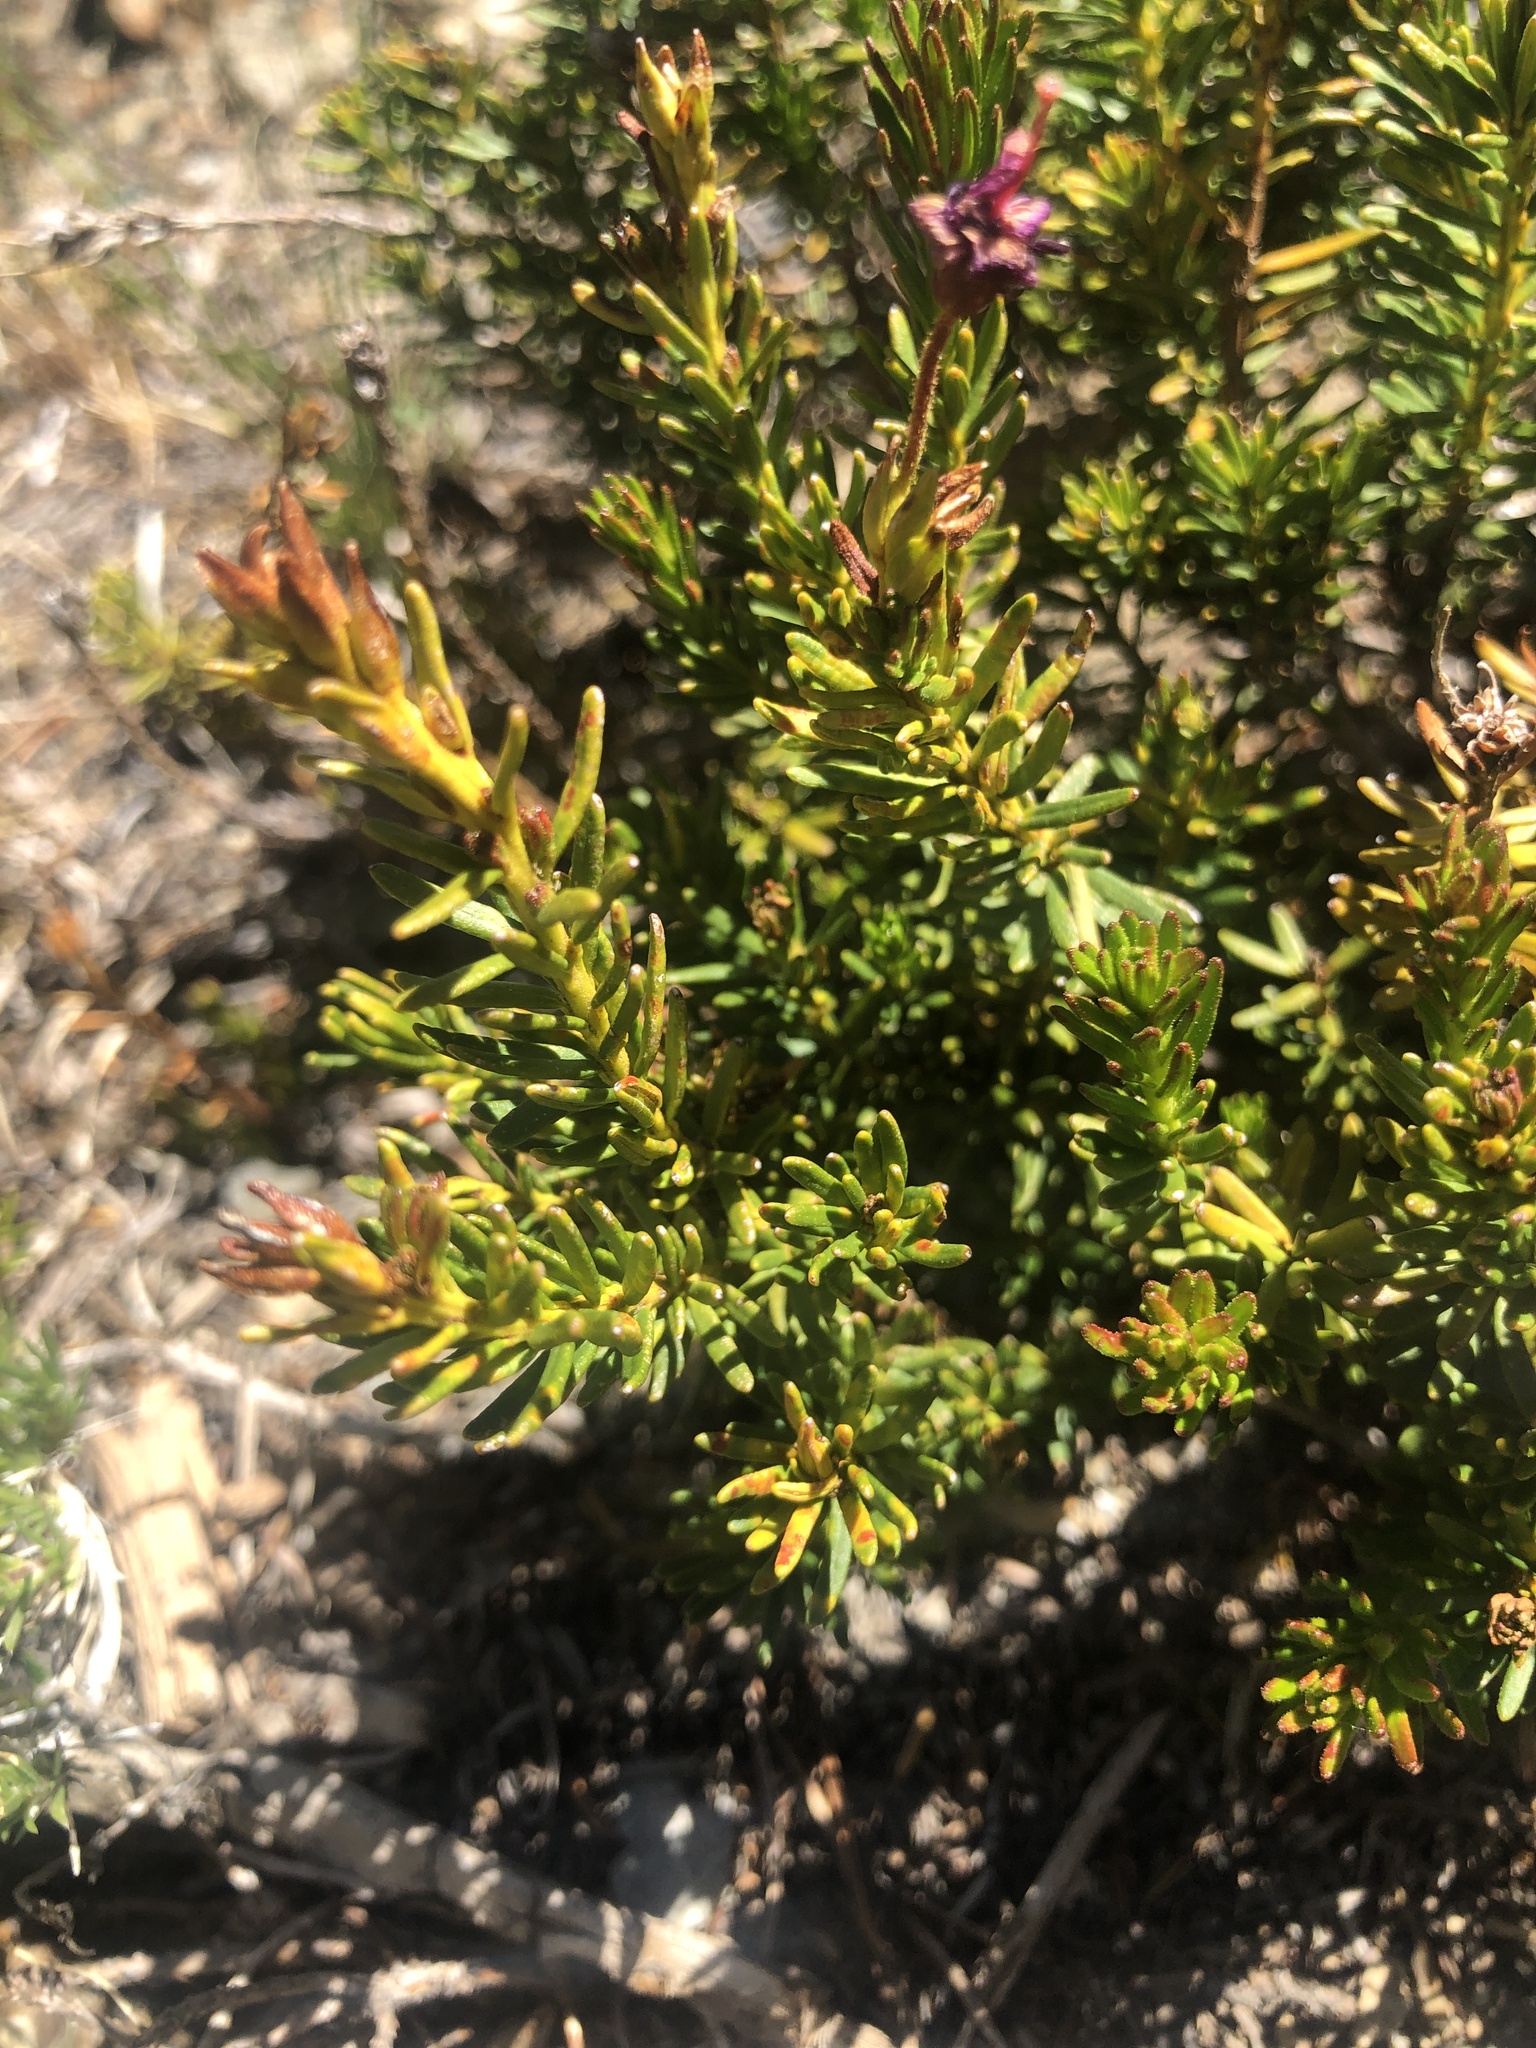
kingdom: Plantae
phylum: Tracheophyta
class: Magnoliopsida
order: Ericales
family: Ericaceae
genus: Phyllodoce
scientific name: Phyllodoce breweri
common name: Brewer's mountain-heather
